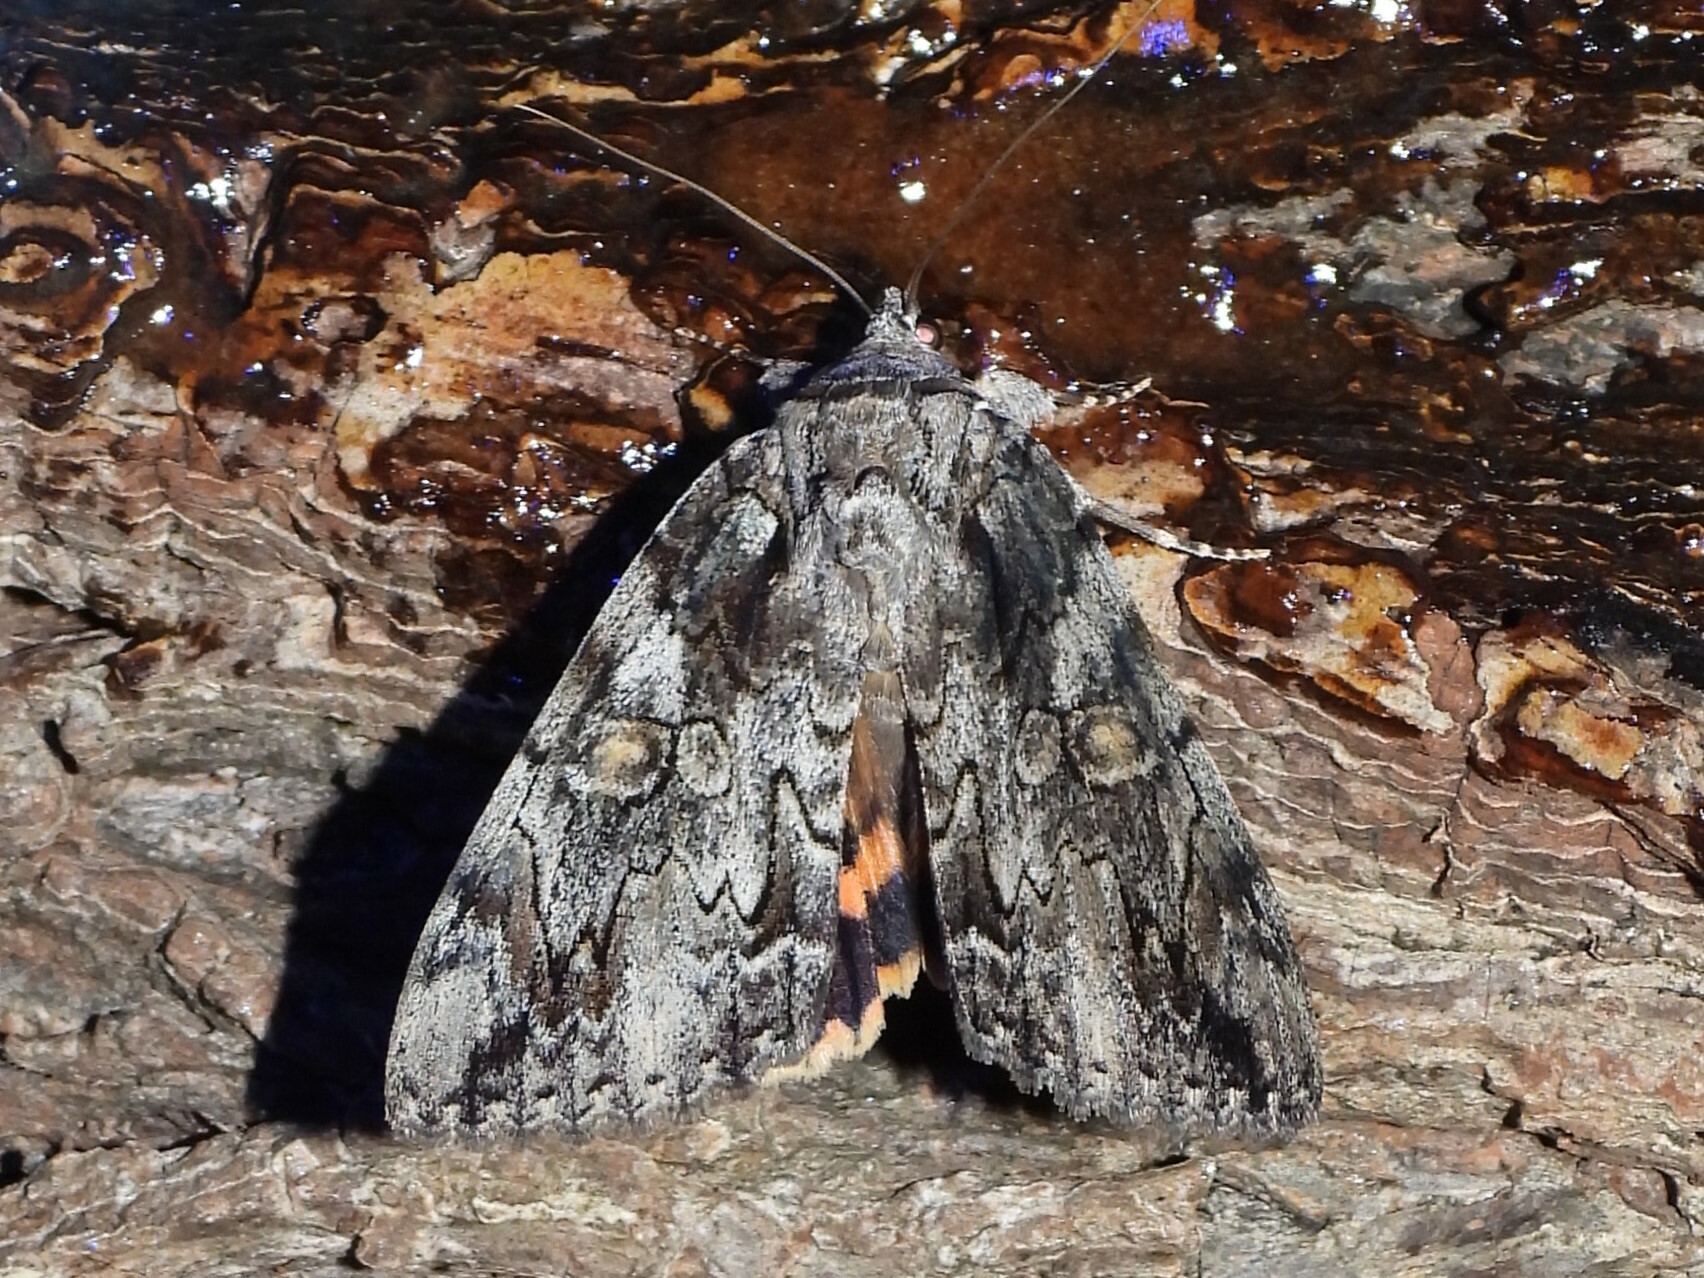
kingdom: Animalia
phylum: Arthropoda
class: Insecta
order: Lepidoptera
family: Erebidae
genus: Catocala
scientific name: Catocala neogama
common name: Bride underwing
